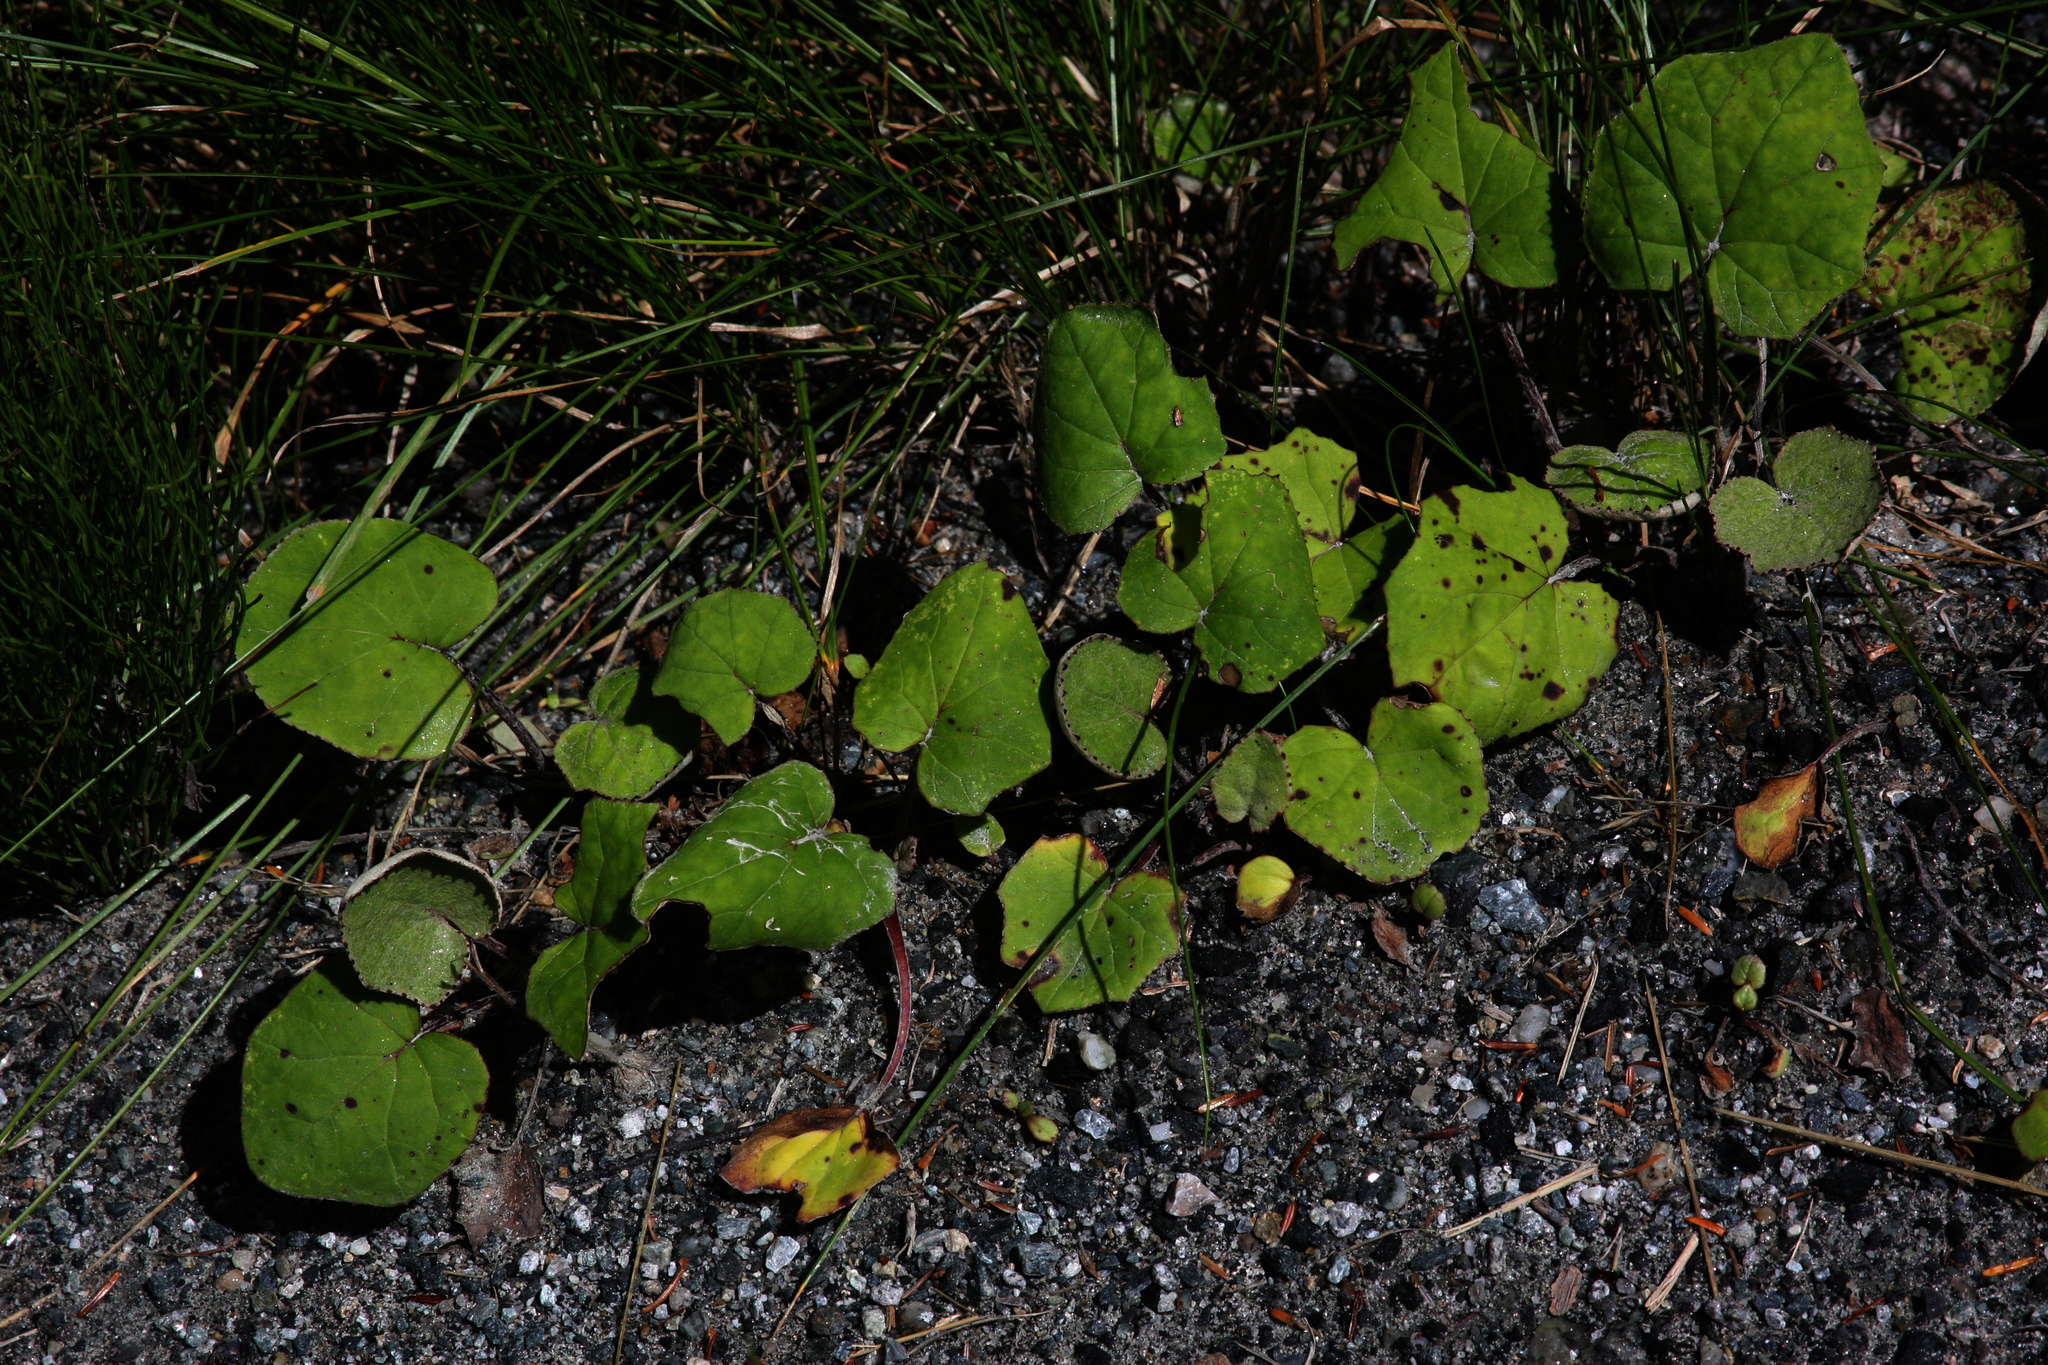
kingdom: Plantae
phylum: Tracheophyta
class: Magnoliopsida
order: Asterales
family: Asteraceae
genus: Tussilago
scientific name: Tussilago farfara
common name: Coltsfoot
